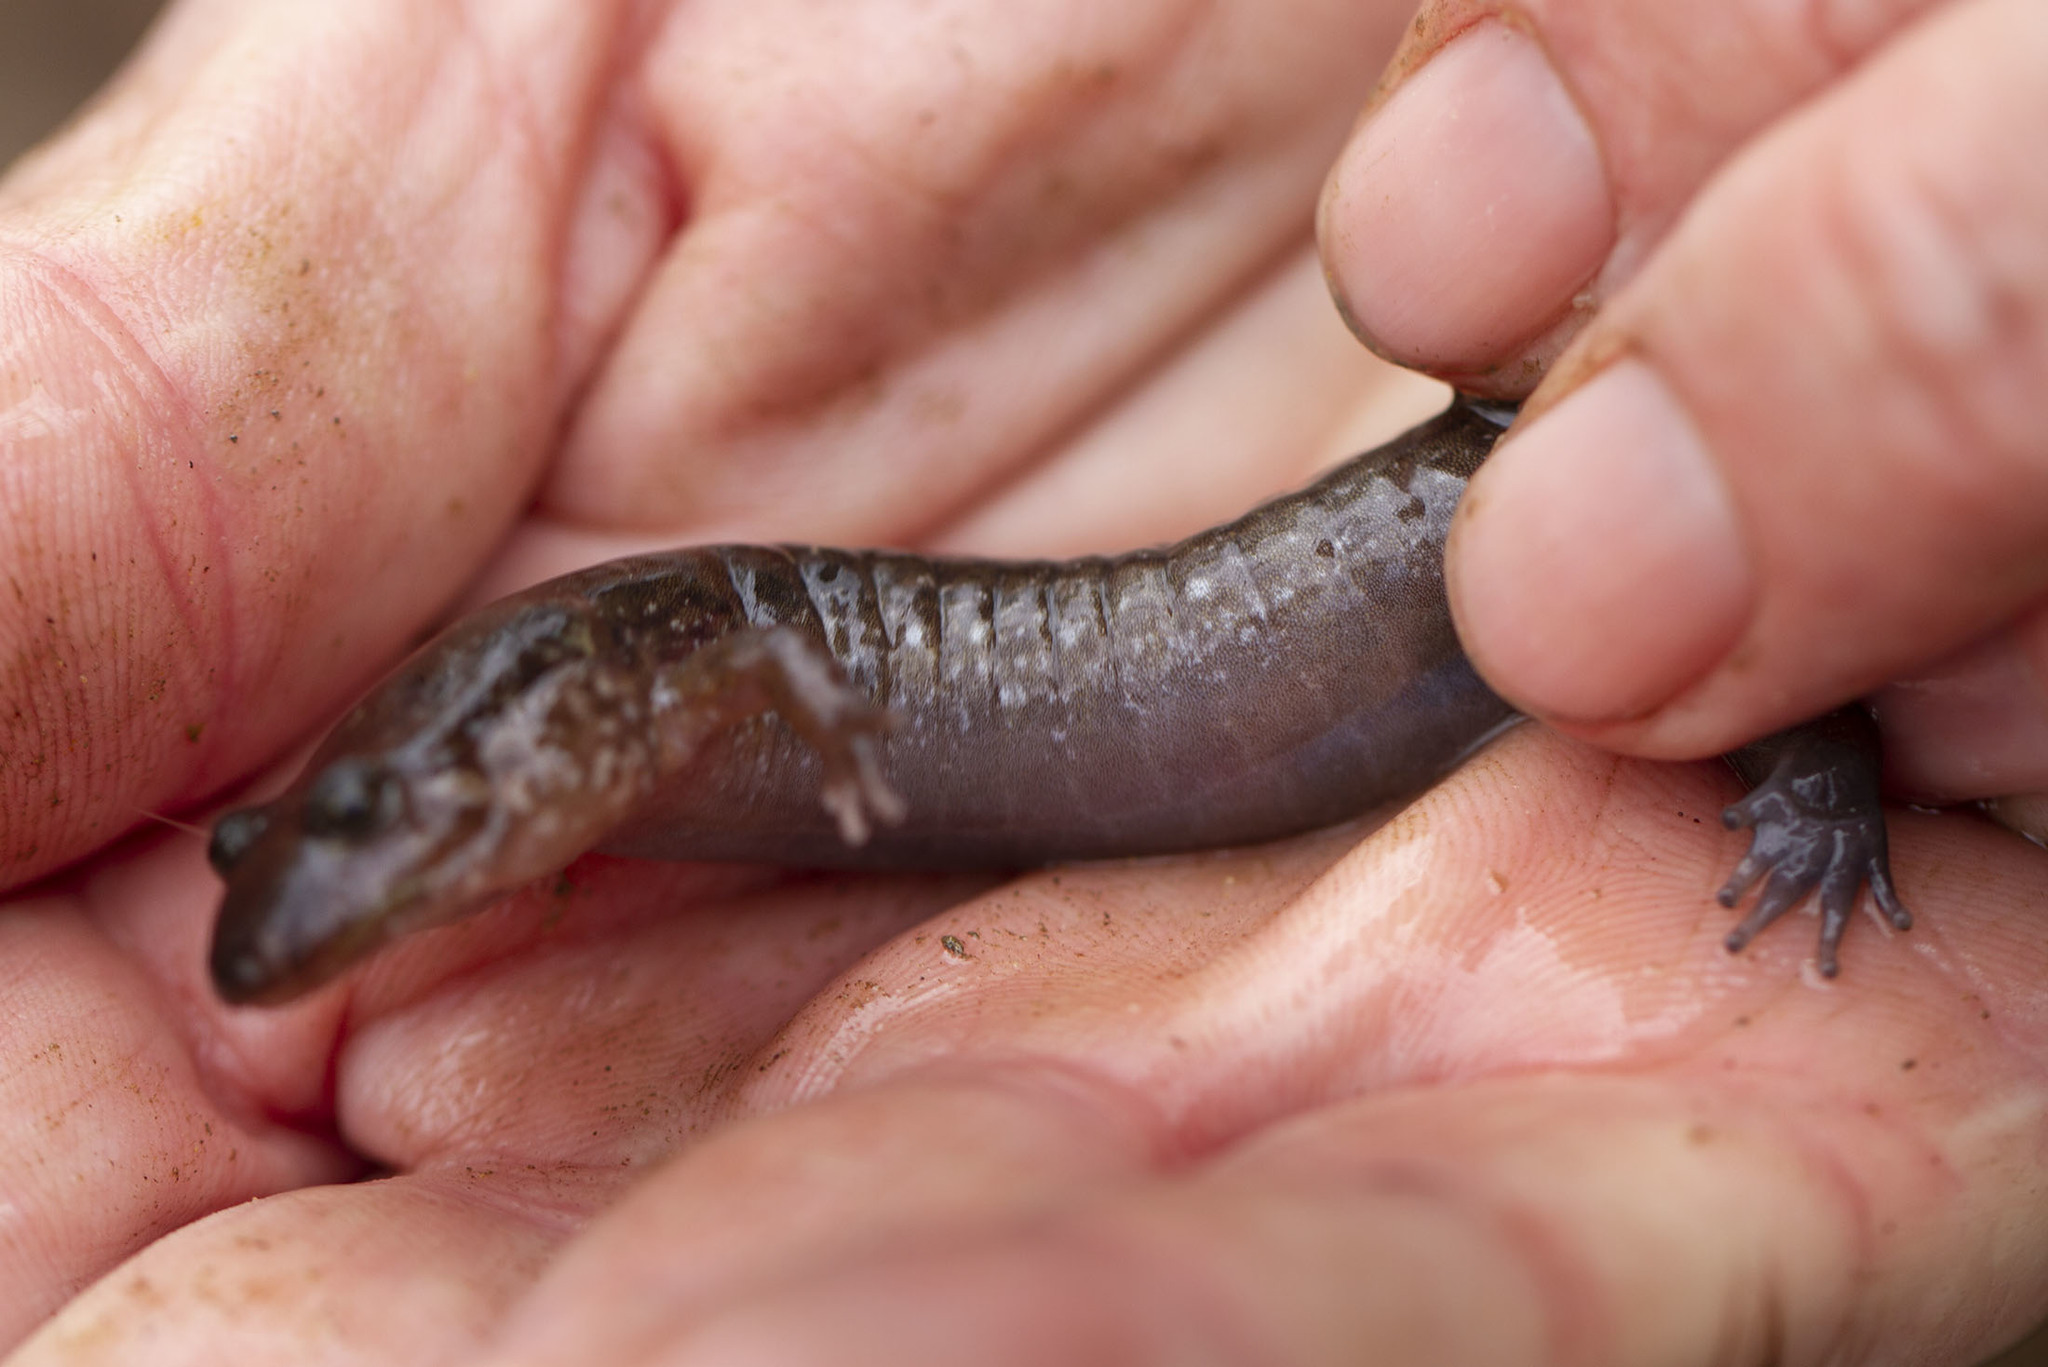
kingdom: Animalia
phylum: Chordata
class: Amphibia
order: Caudata
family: Plethodontidae
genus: Desmognathus
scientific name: Desmognathus monticola
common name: Seal salamander
